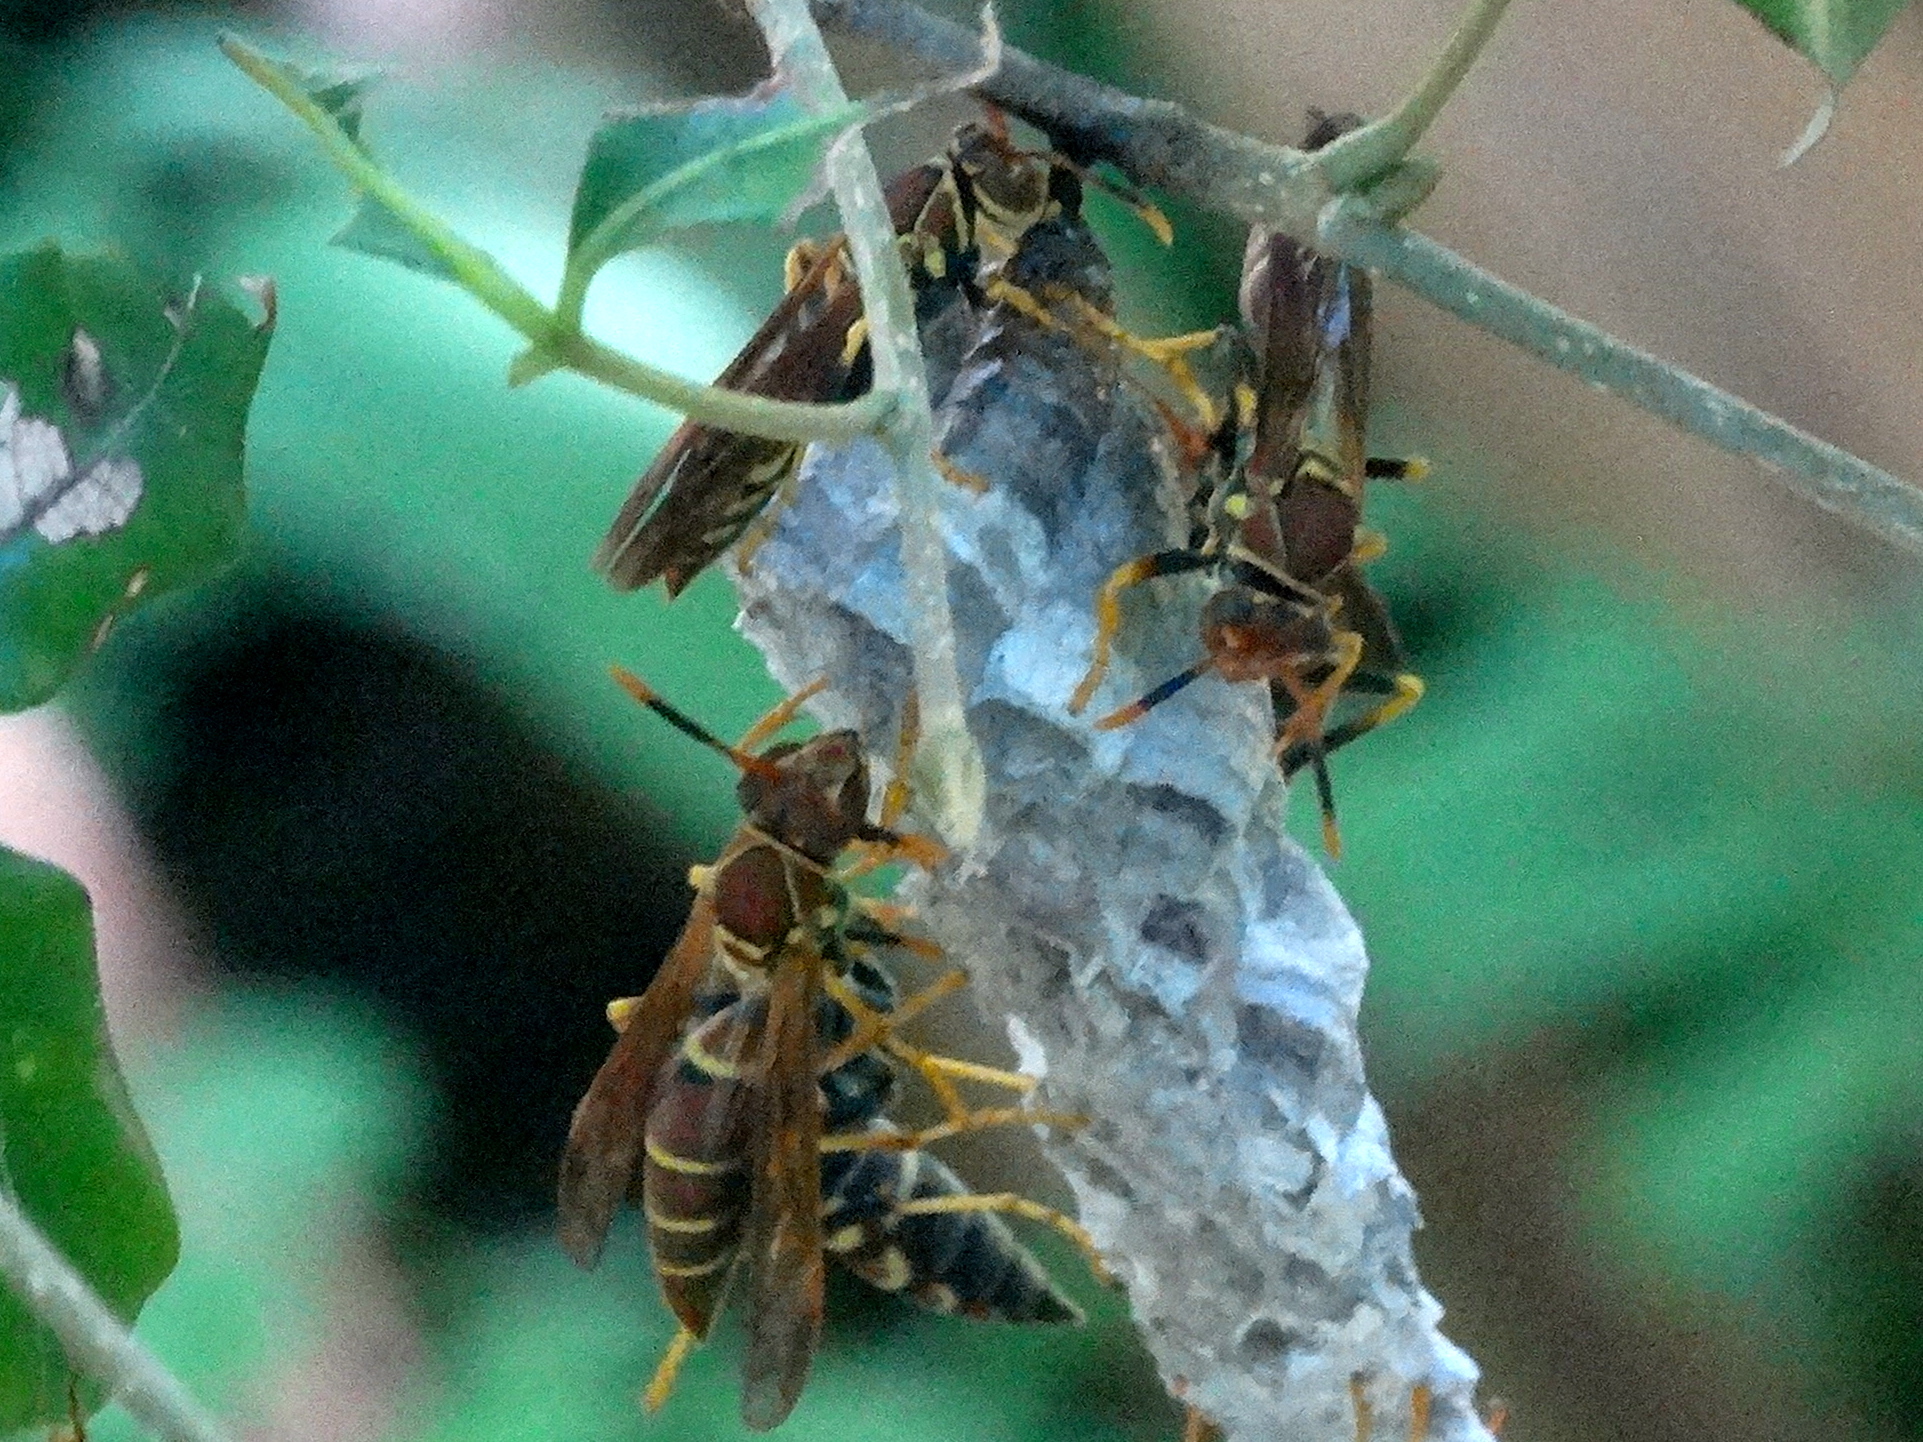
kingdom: Animalia
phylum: Arthropoda
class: Insecta
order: Hymenoptera
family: Eumenidae
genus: Polistes
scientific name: Polistes instabilis
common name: Unstable paper wasp
